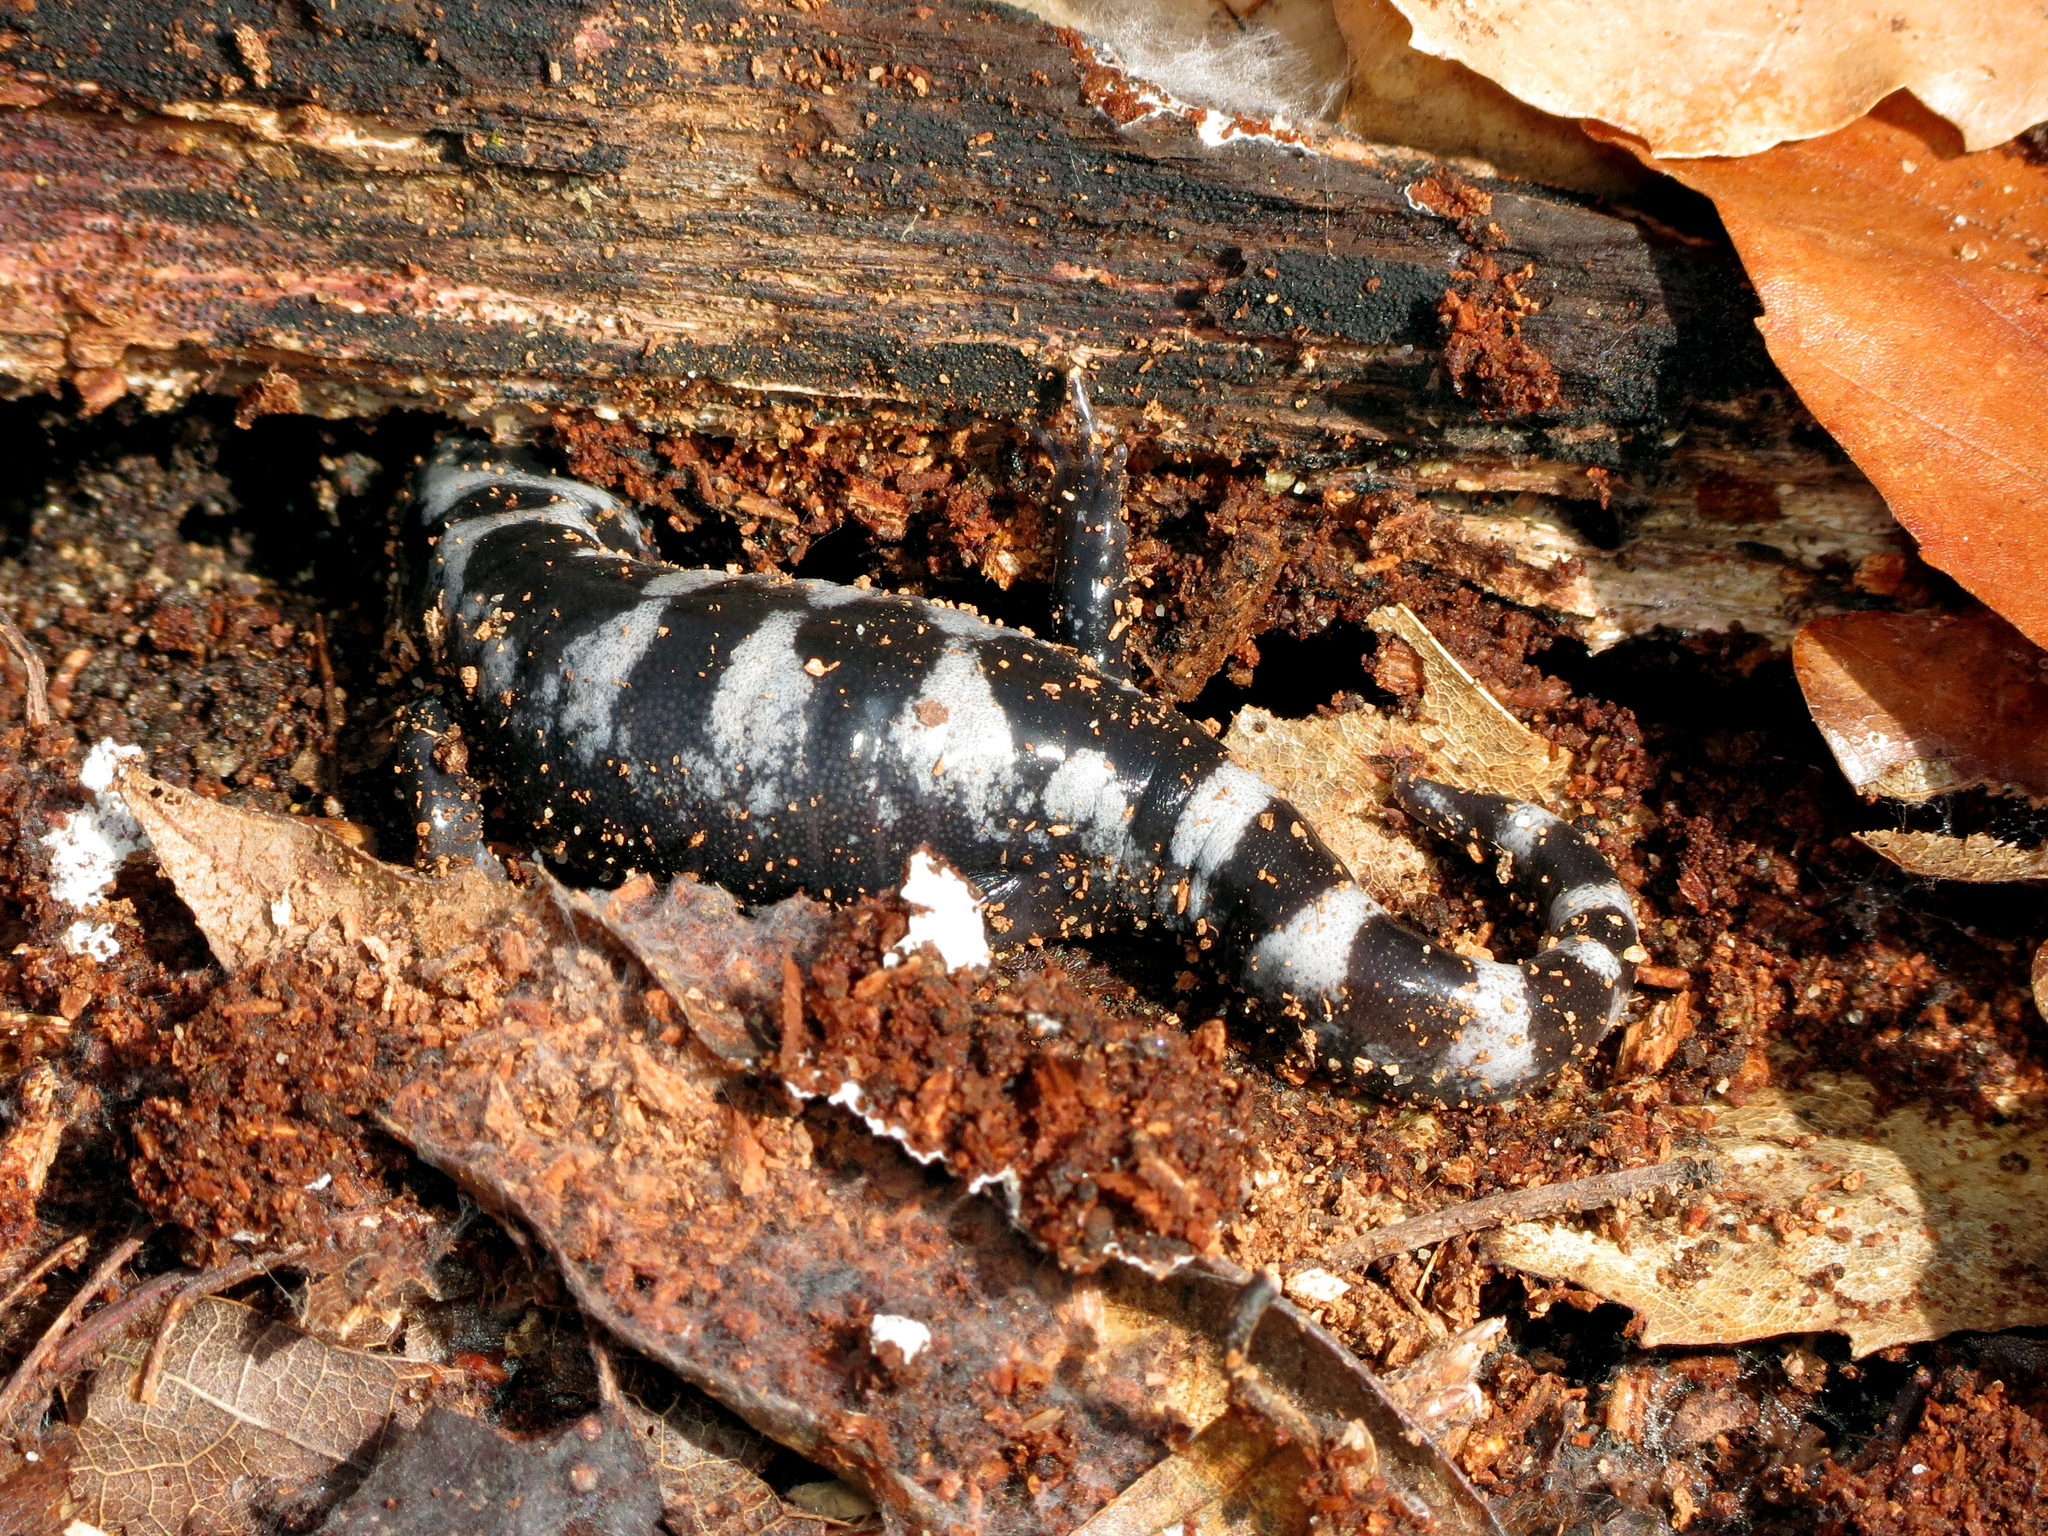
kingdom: Animalia
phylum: Chordata
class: Amphibia
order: Caudata
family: Ambystomatidae
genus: Ambystoma
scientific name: Ambystoma opacum
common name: Marbled salamander
